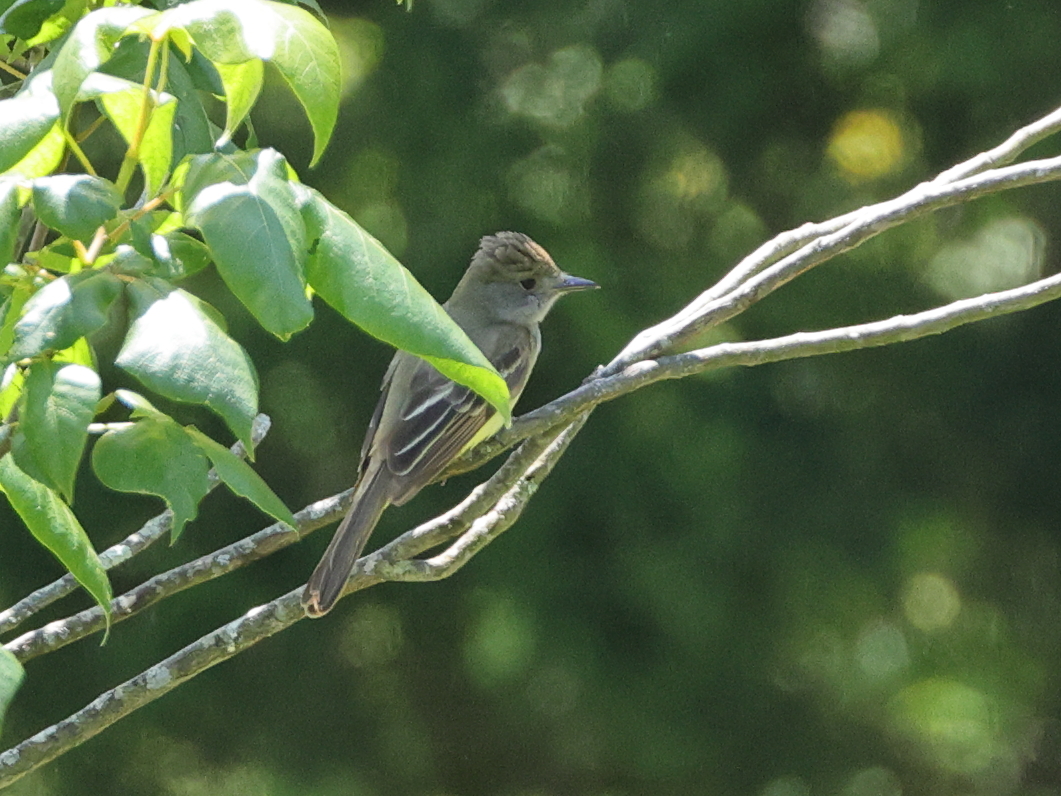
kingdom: Animalia
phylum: Chordata
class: Aves
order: Passeriformes
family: Tyrannidae
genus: Myiarchus
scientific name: Myiarchus crinitus
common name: Great crested flycatcher
